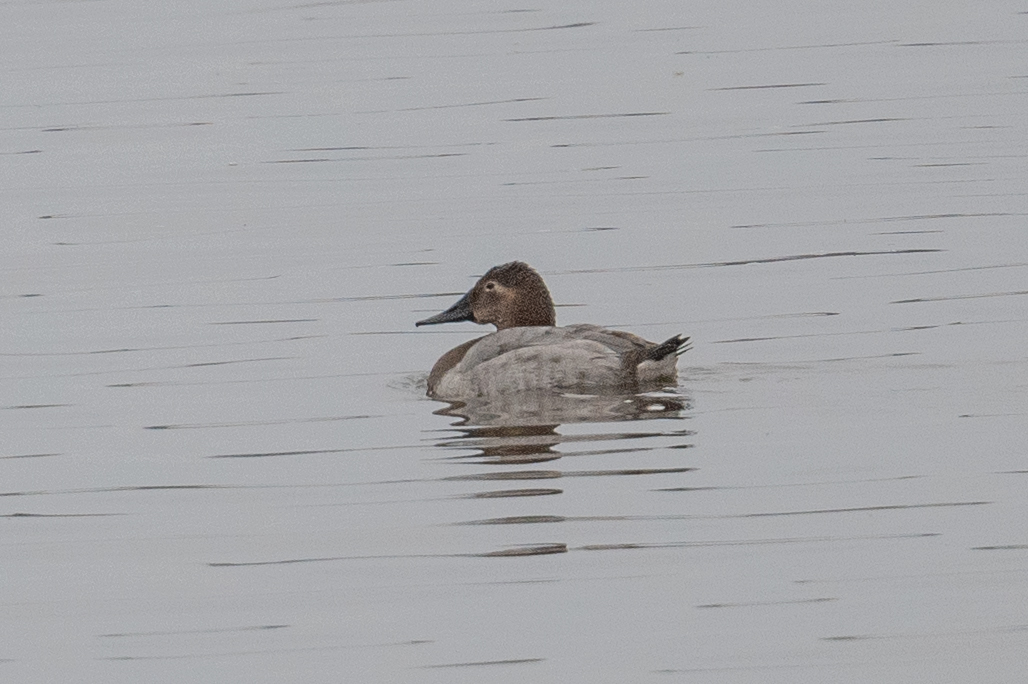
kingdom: Animalia
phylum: Chordata
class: Aves
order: Anseriformes
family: Anatidae
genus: Aythya
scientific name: Aythya valisineria
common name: Canvasback
